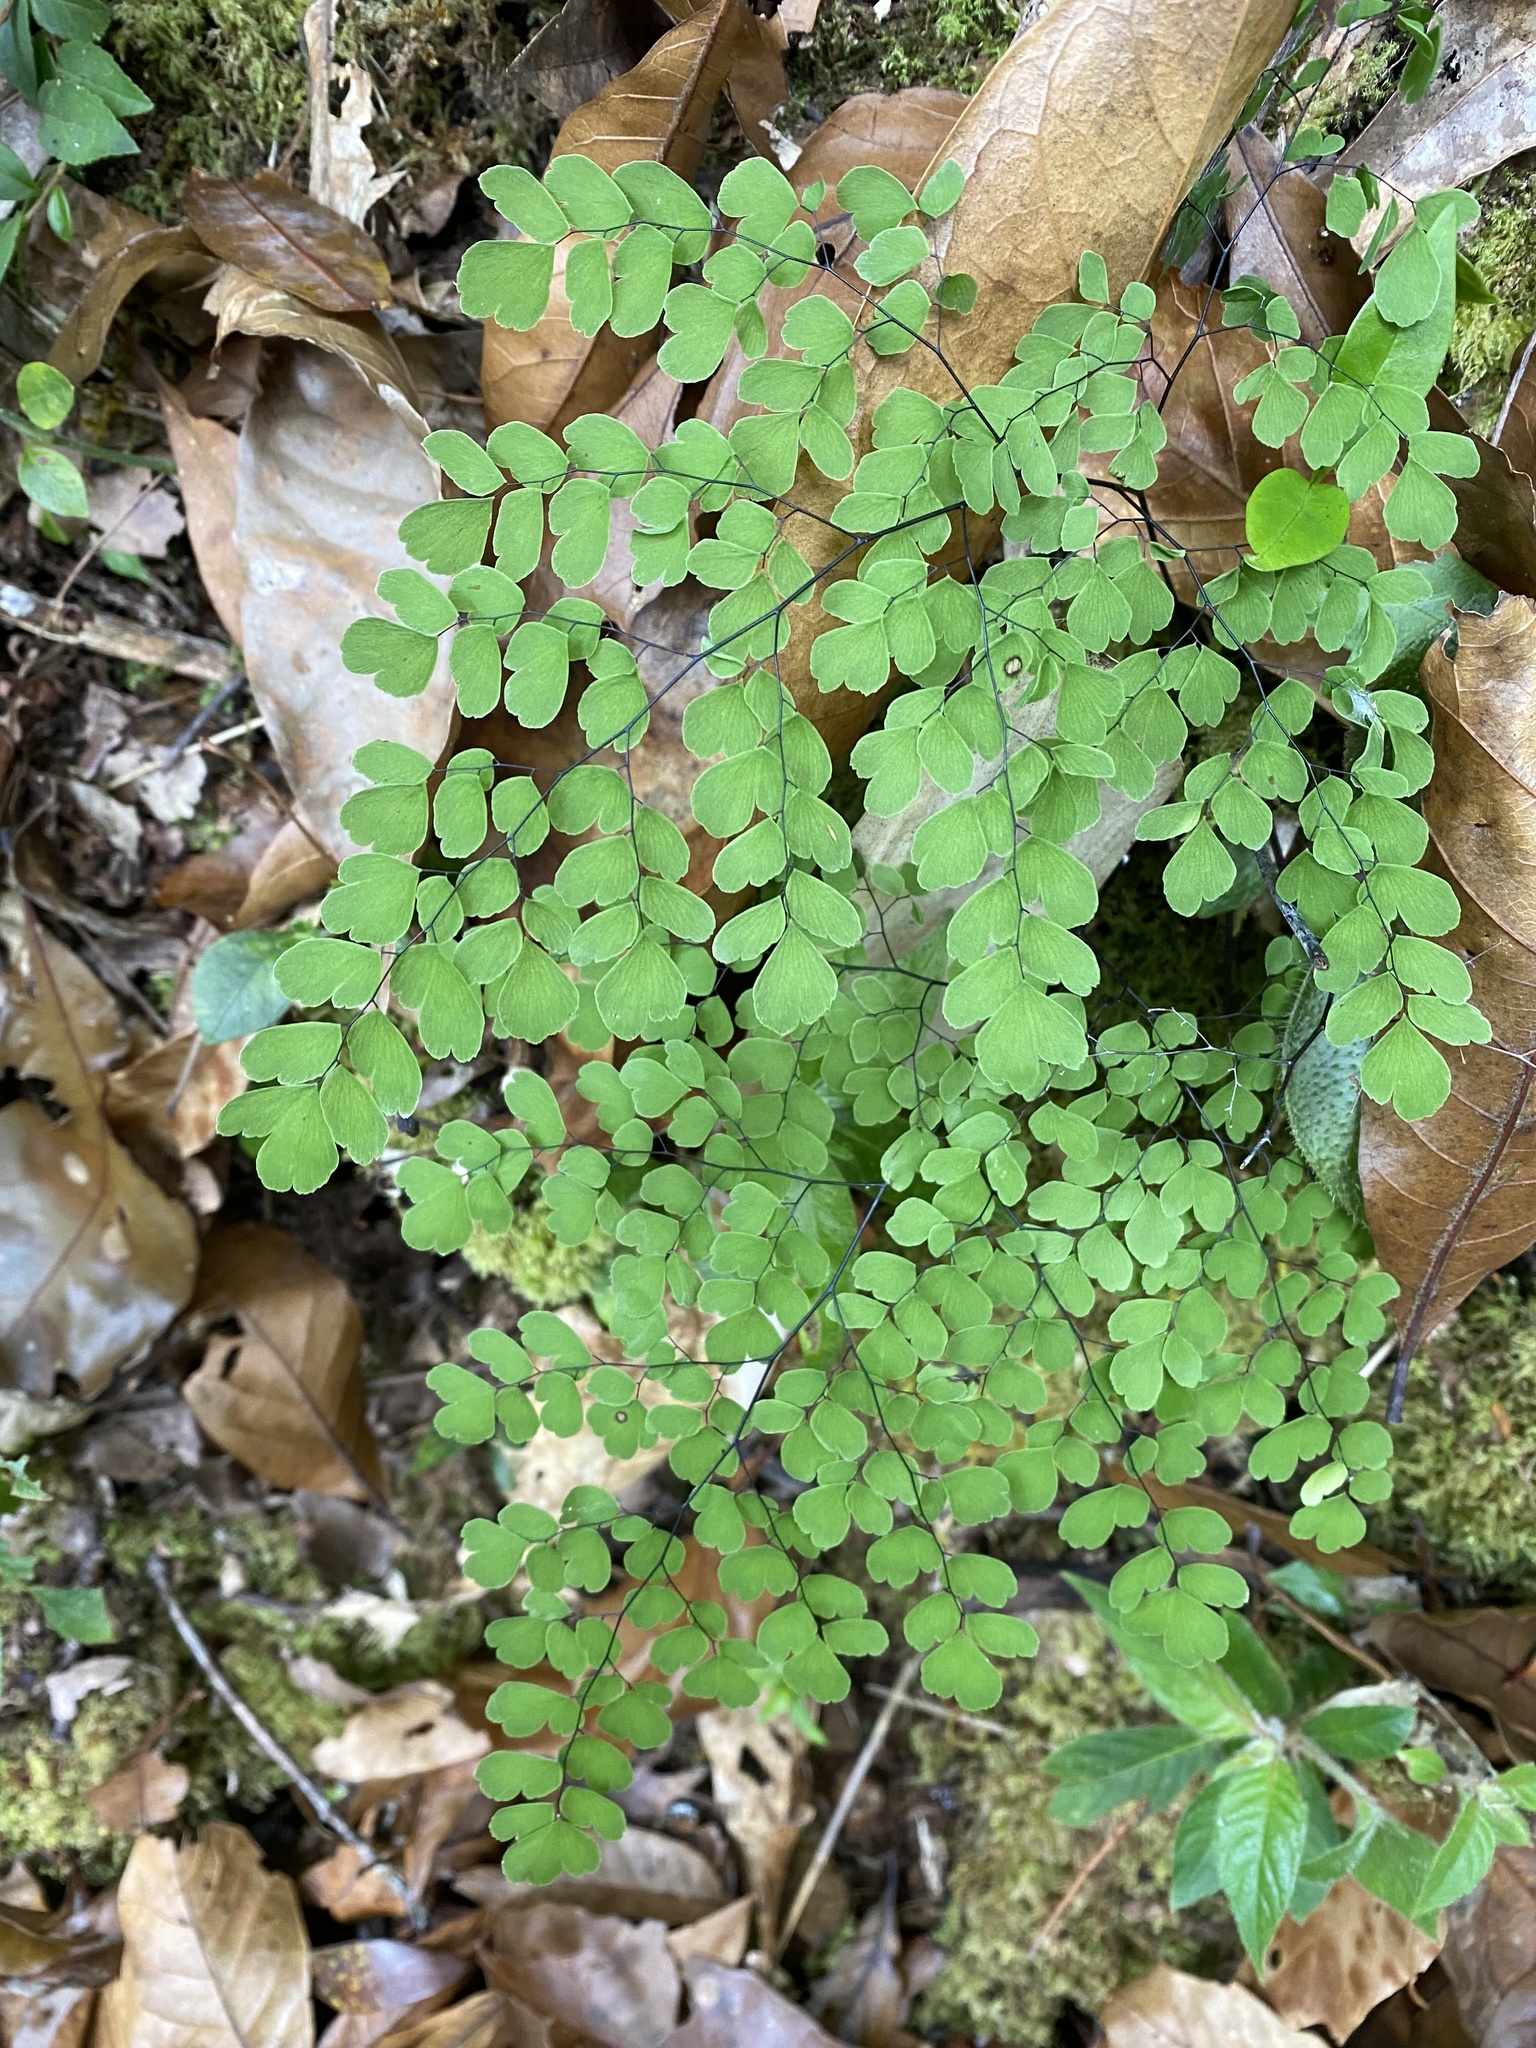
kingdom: Plantae
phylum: Tracheophyta
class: Polypodiopsida
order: Polypodiales
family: Pteridaceae
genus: Adiantum
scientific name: Adiantum andicola
